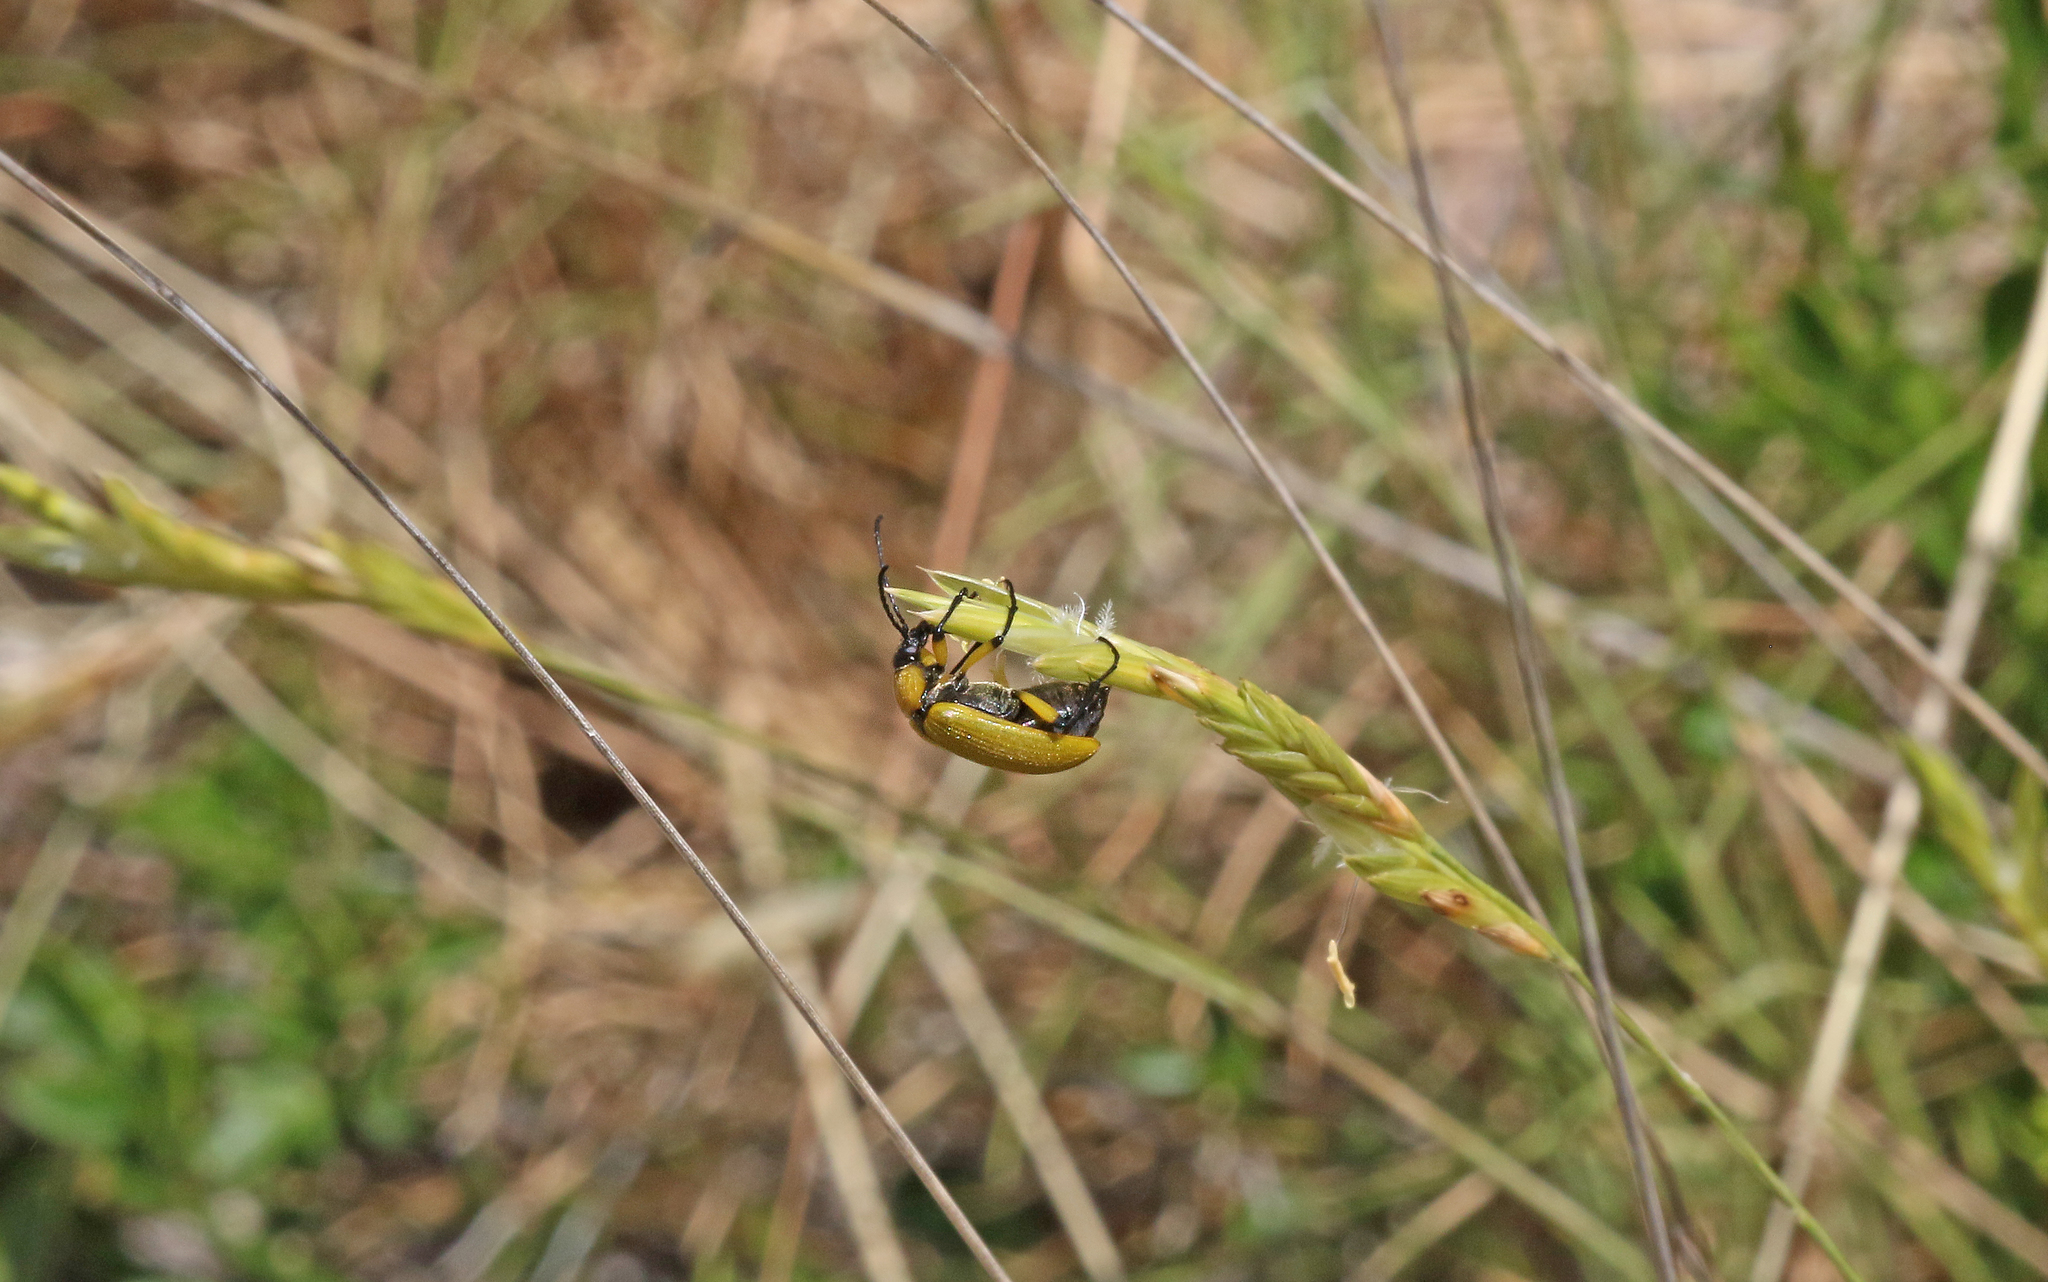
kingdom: Animalia
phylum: Arthropoda
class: Insecta
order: Coleoptera
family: Tenebrionidae
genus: Proctenius
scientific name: Proctenius luteus
